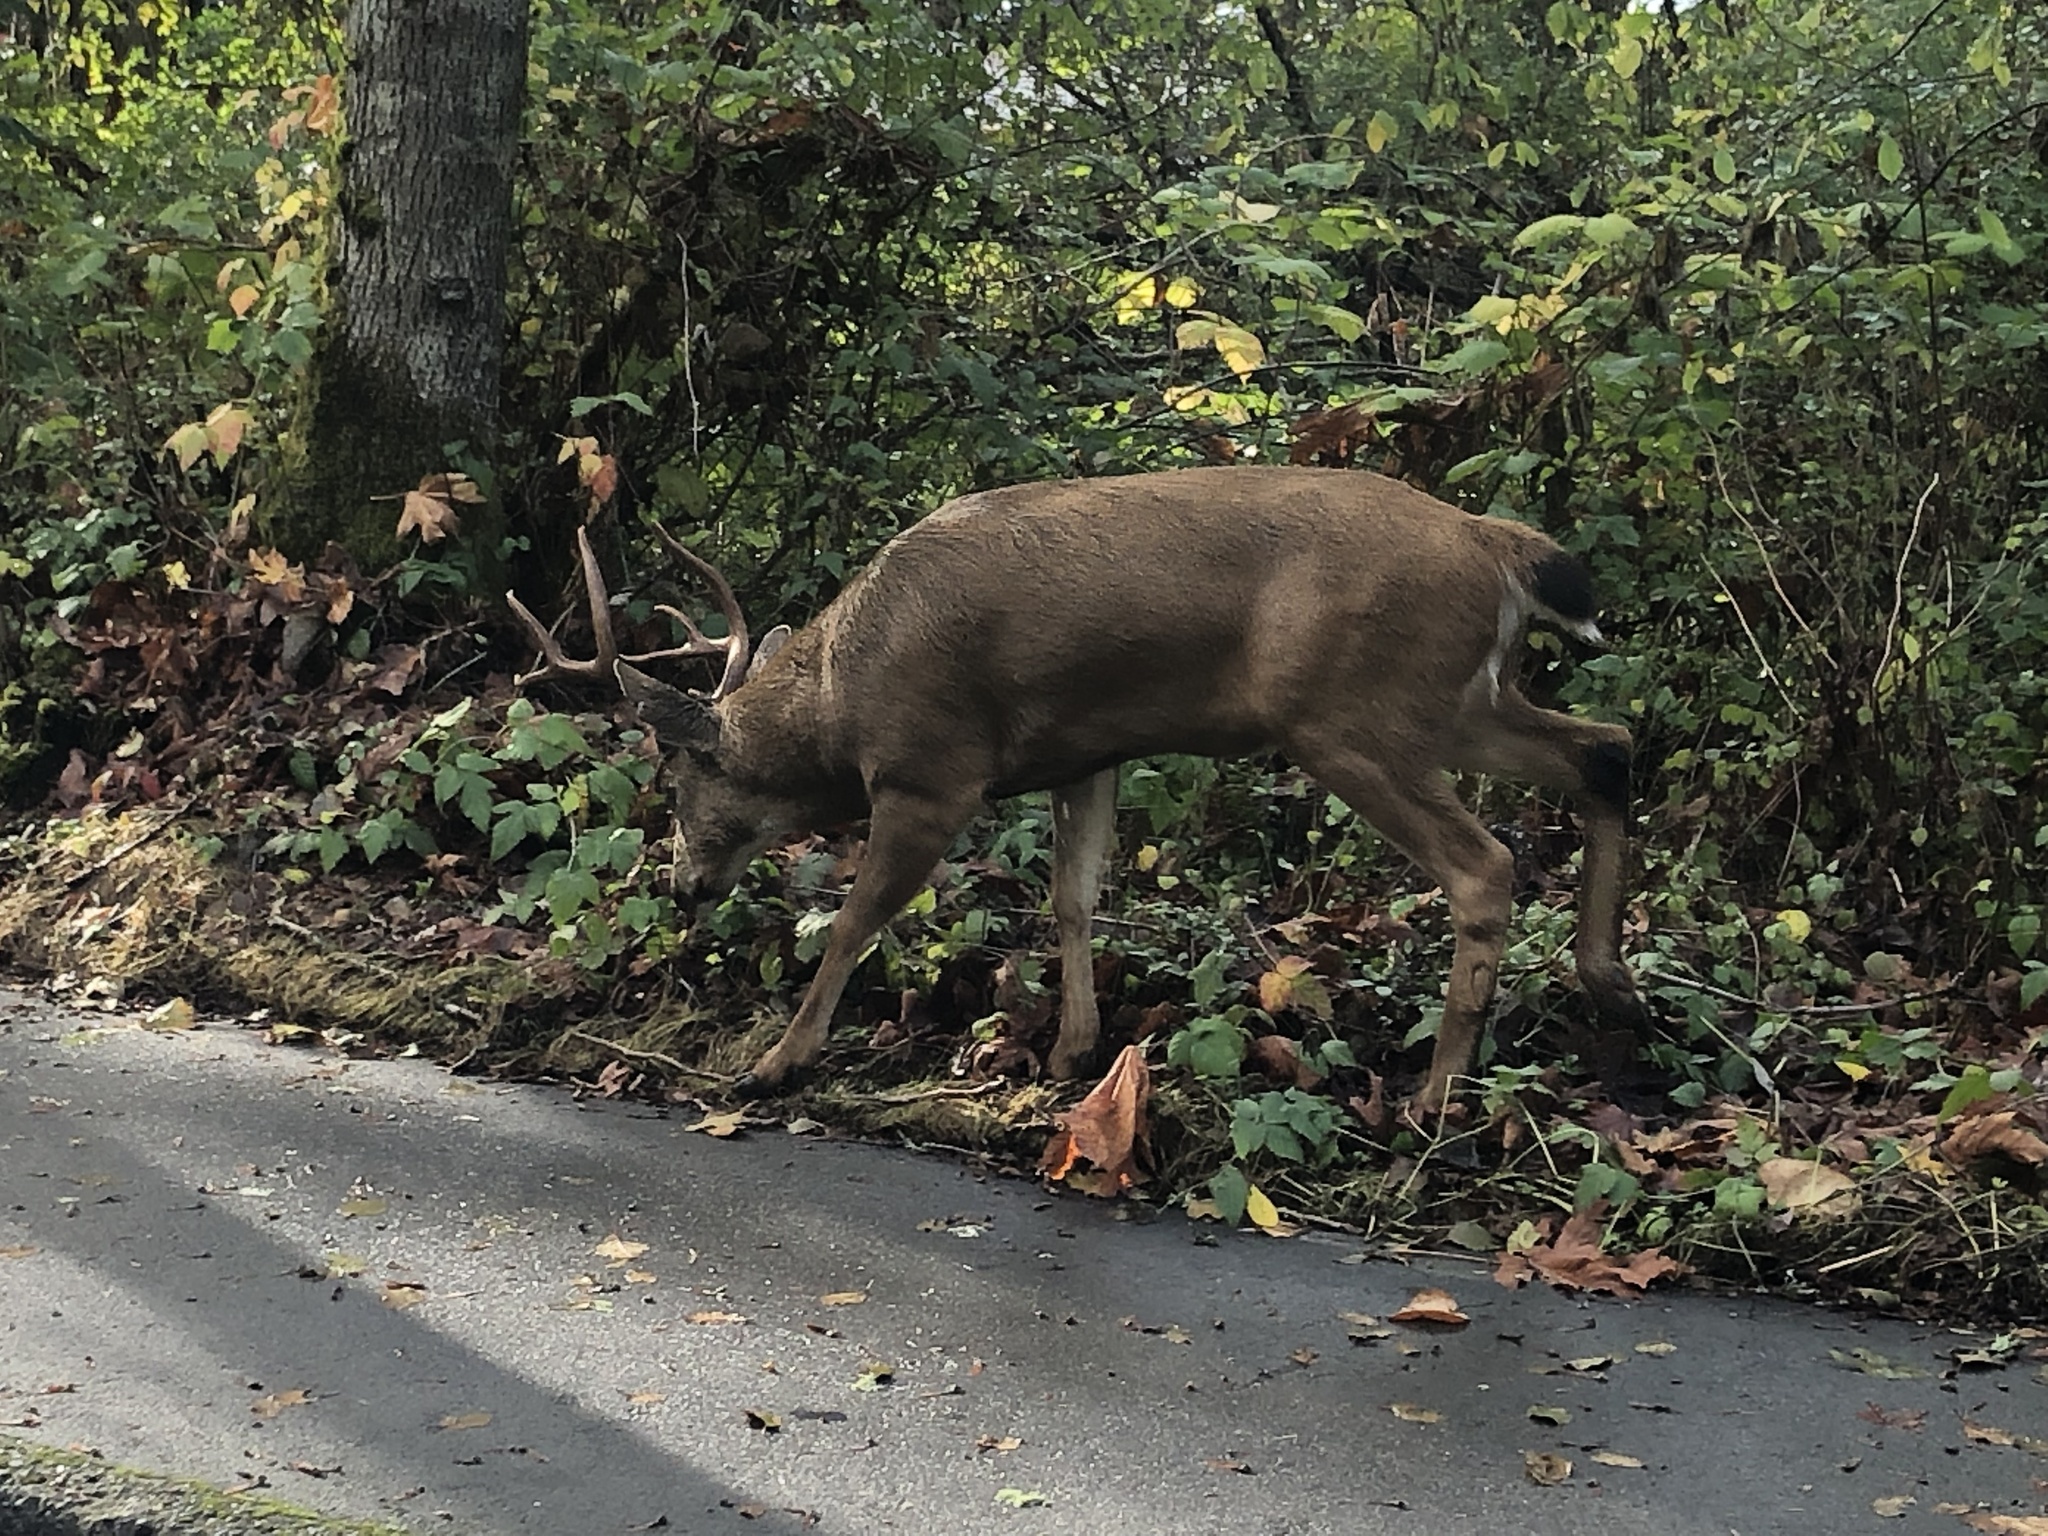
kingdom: Animalia
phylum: Chordata
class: Mammalia
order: Artiodactyla
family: Cervidae
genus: Odocoileus
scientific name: Odocoileus hemionus
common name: Mule deer
